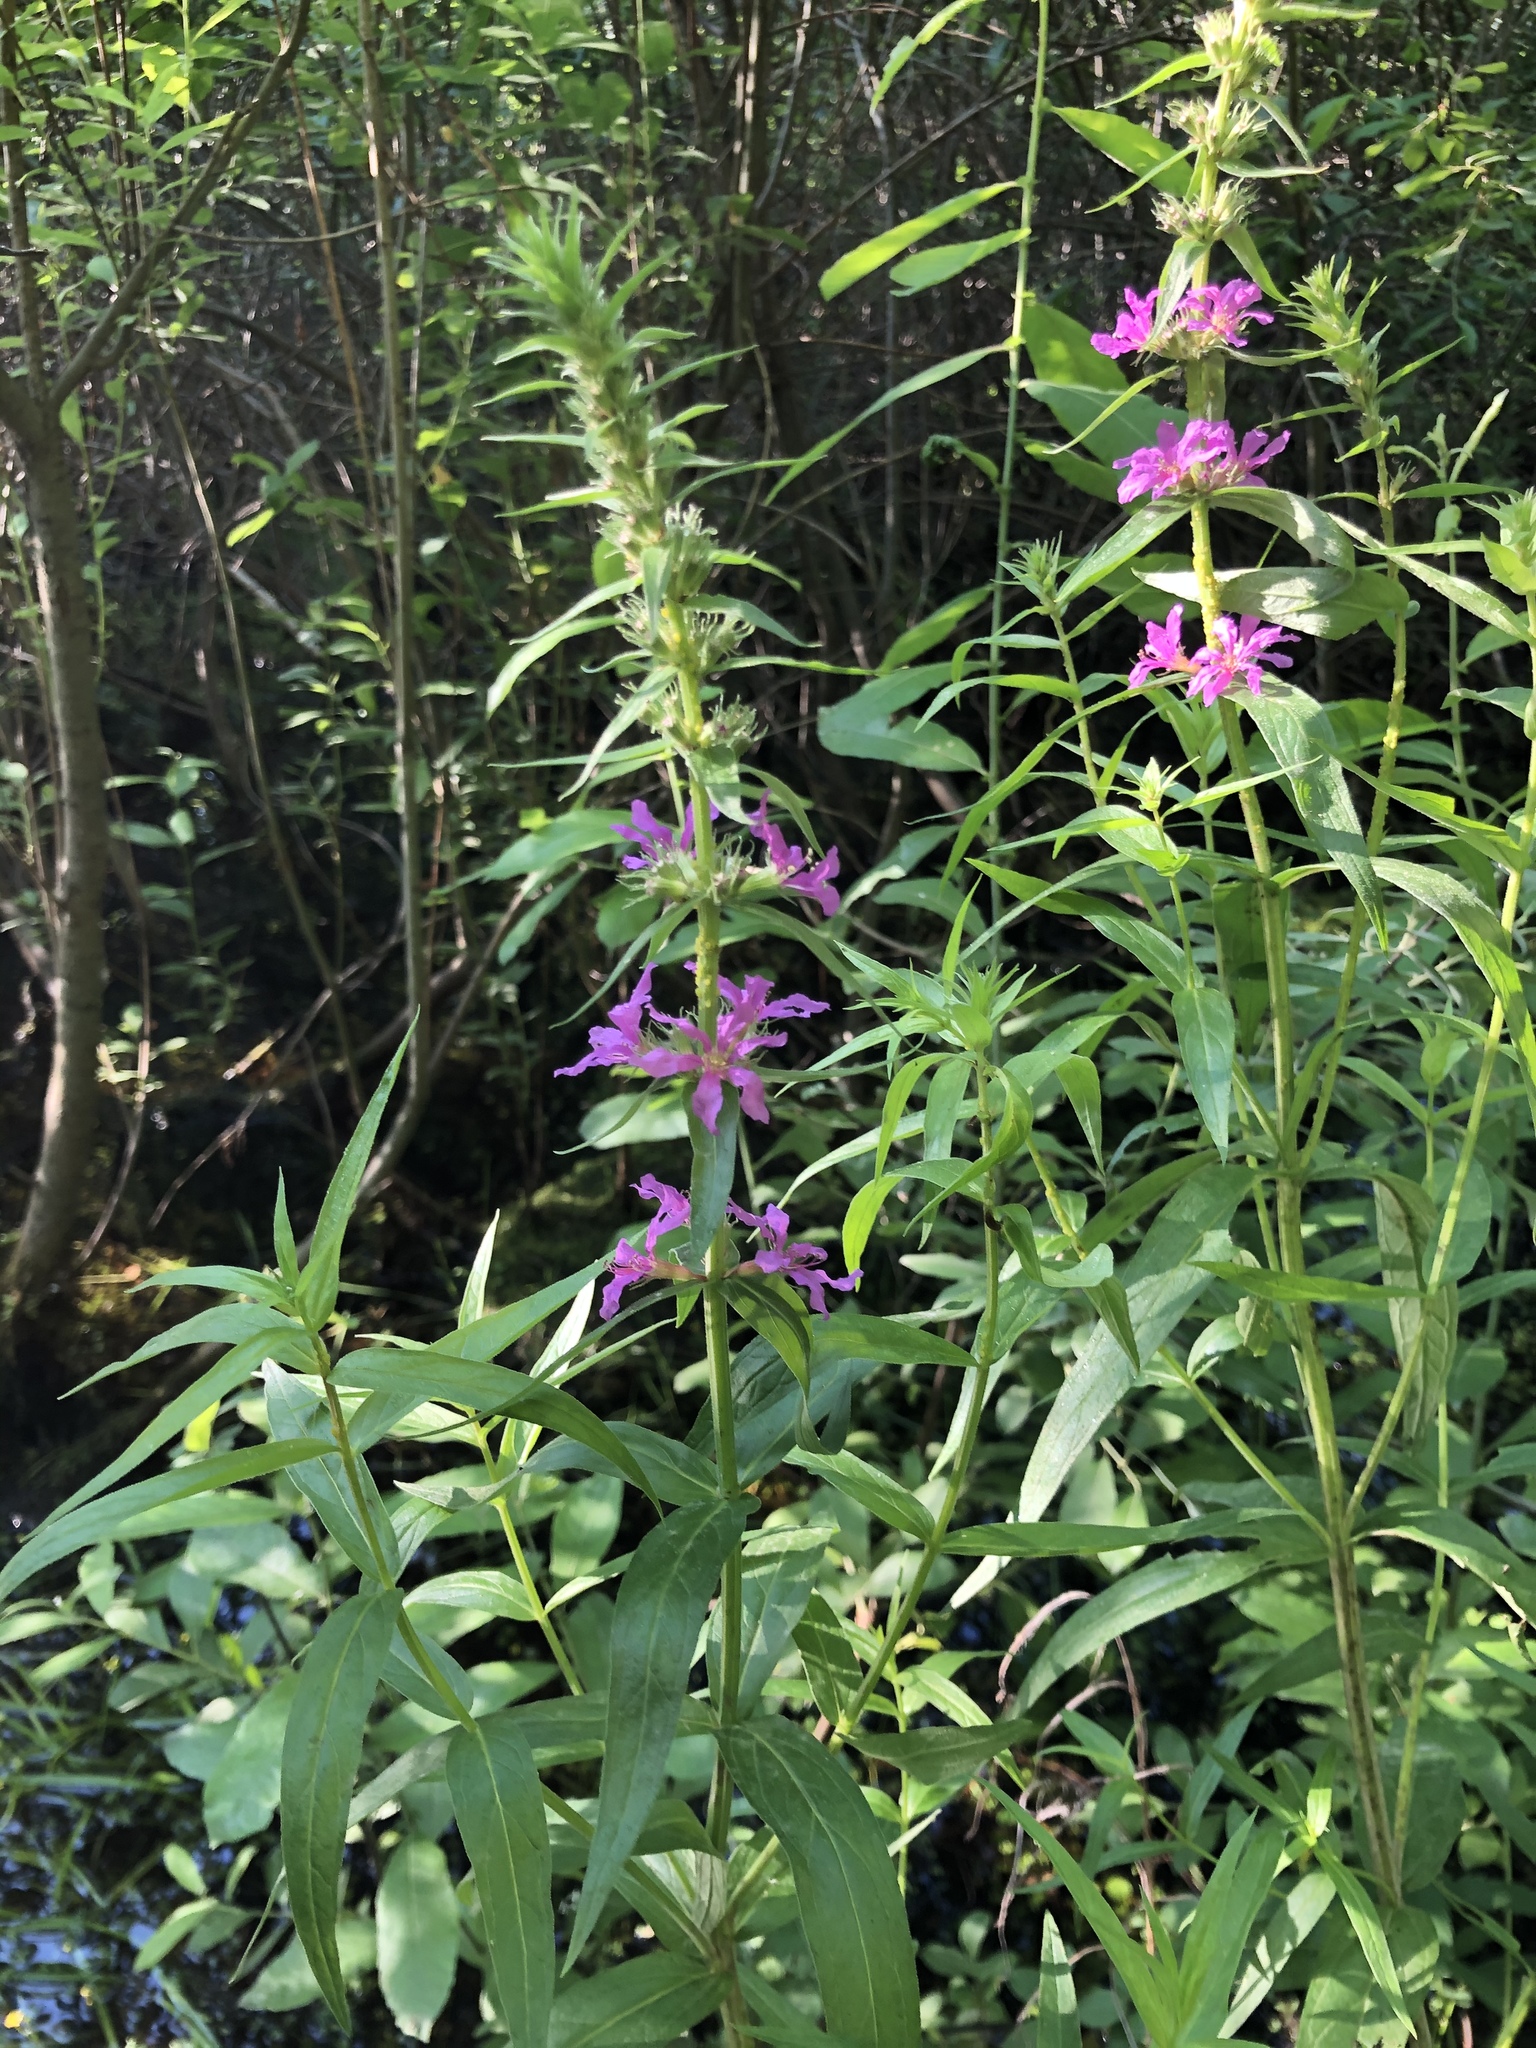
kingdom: Plantae
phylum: Tracheophyta
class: Magnoliopsida
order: Myrtales
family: Lythraceae
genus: Lythrum
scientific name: Lythrum salicaria
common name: Purple loosestrife
